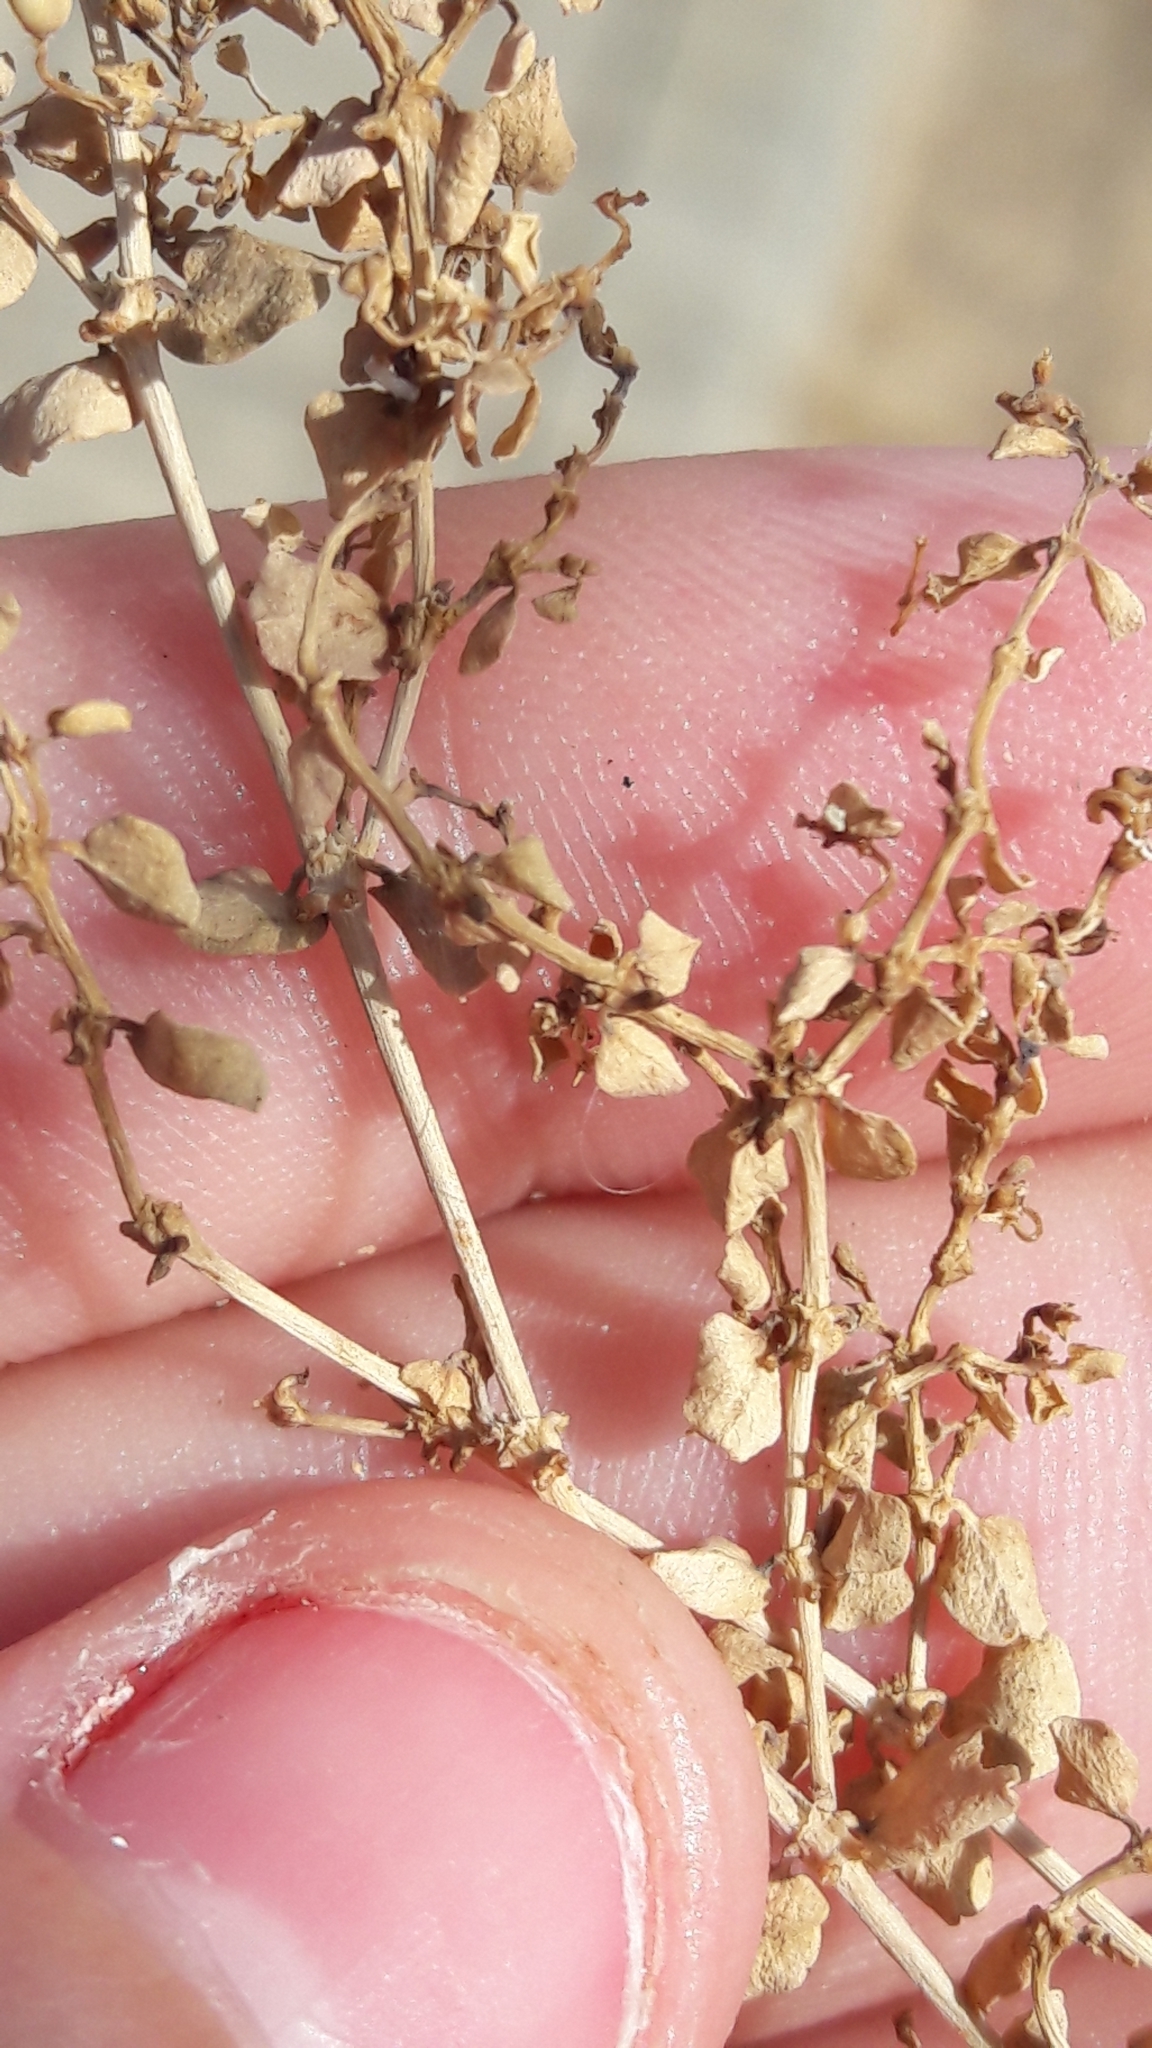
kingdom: Plantae
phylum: Tracheophyta
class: Magnoliopsida
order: Malpighiales
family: Euphorbiaceae
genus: Euphorbia
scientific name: Euphorbia serpens
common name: Matted sandmat
